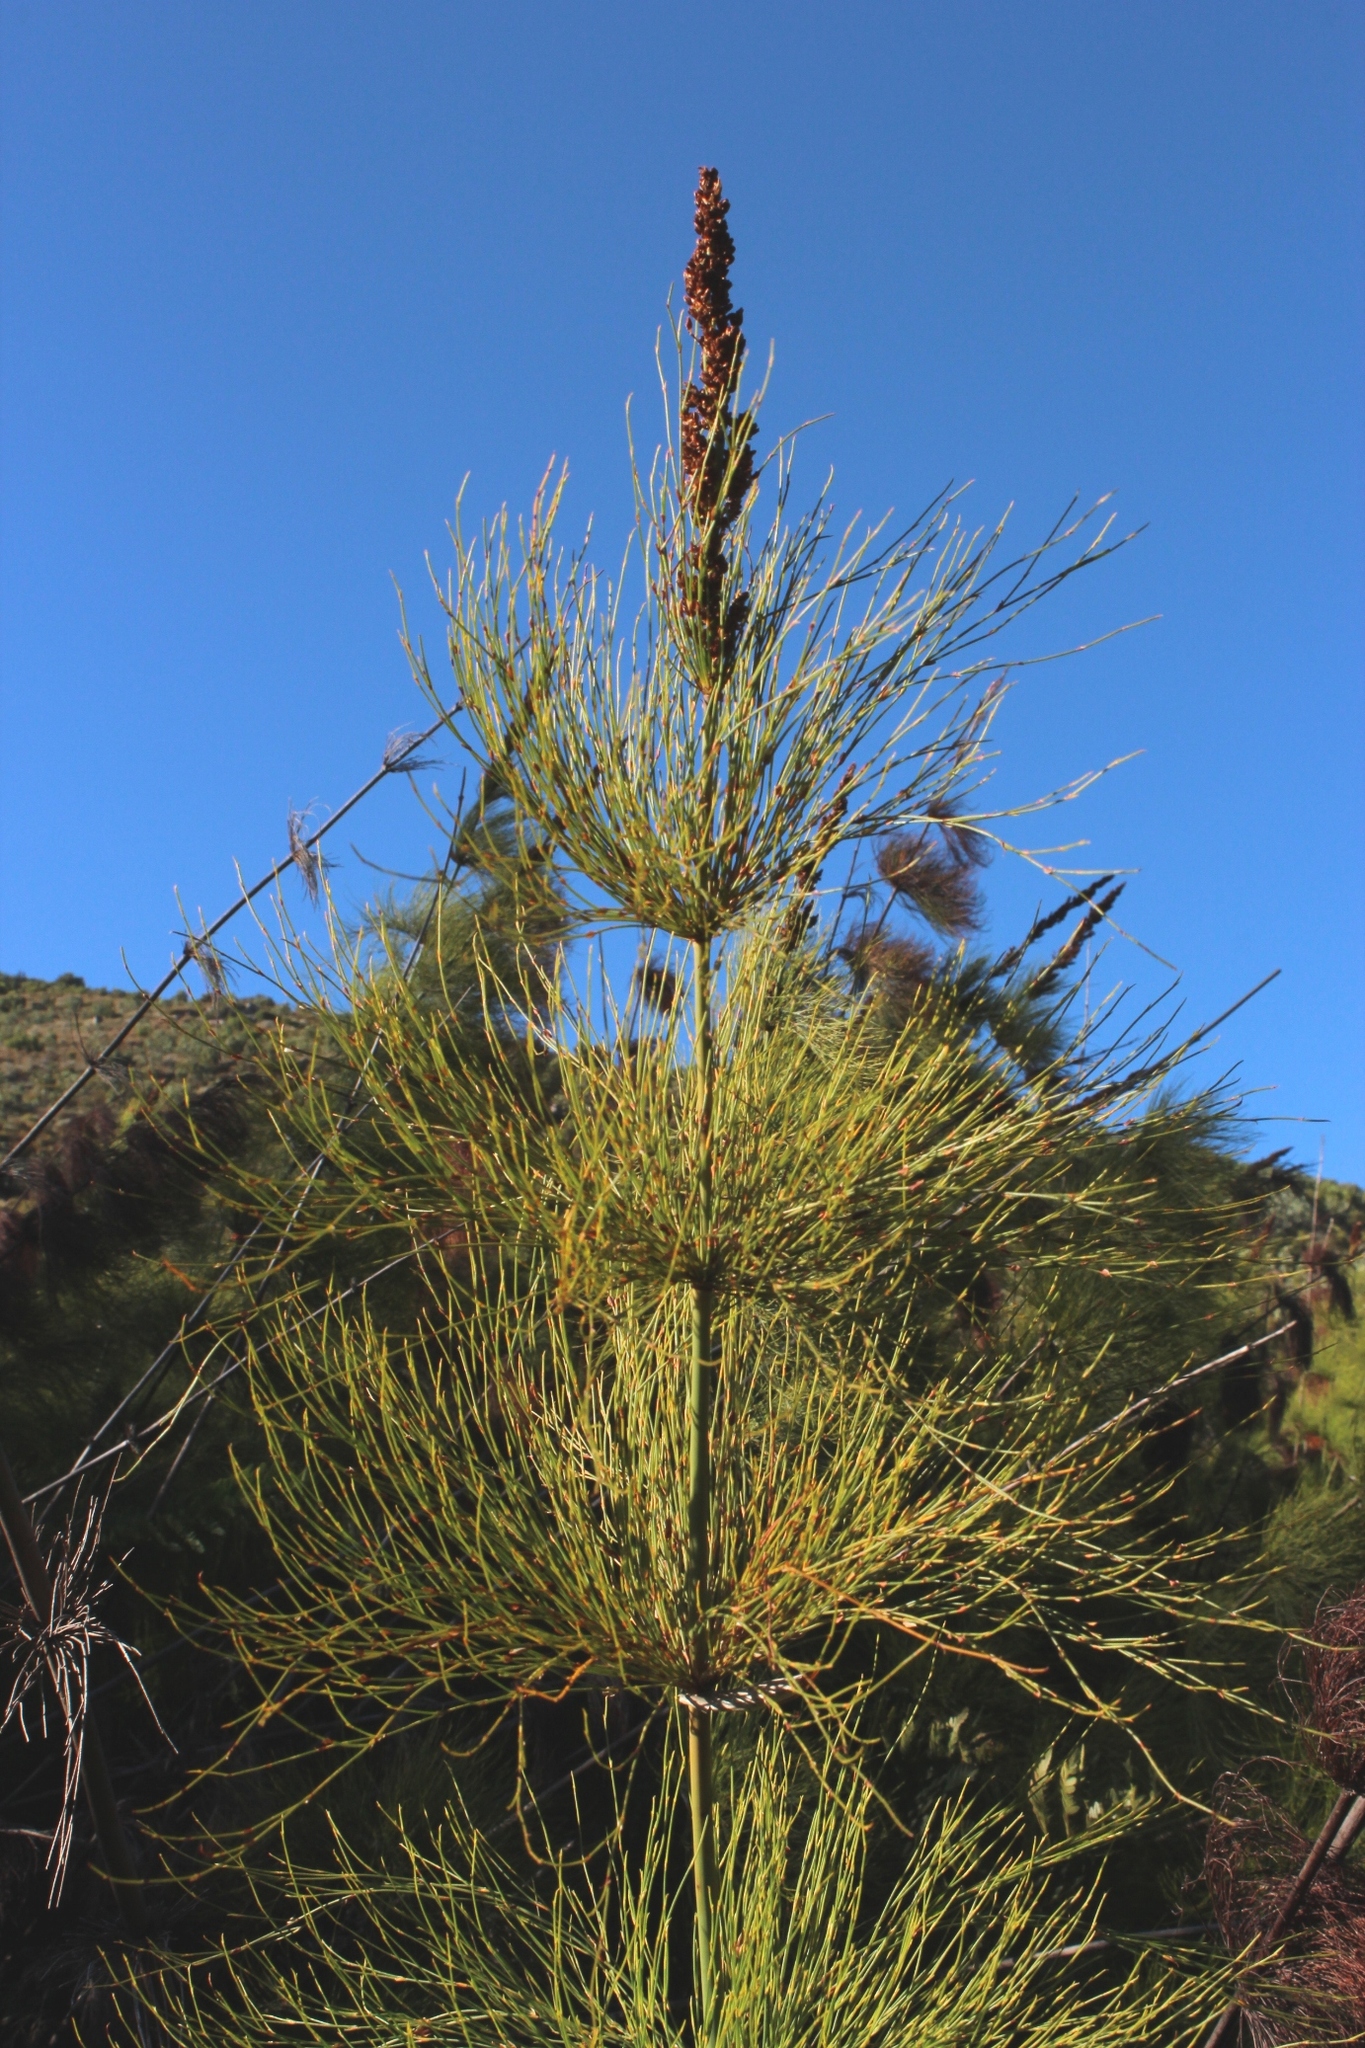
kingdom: Plantae
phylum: Tracheophyta
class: Liliopsida
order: Poales
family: Restionaceae
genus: Elegia
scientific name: Elegia capensis
